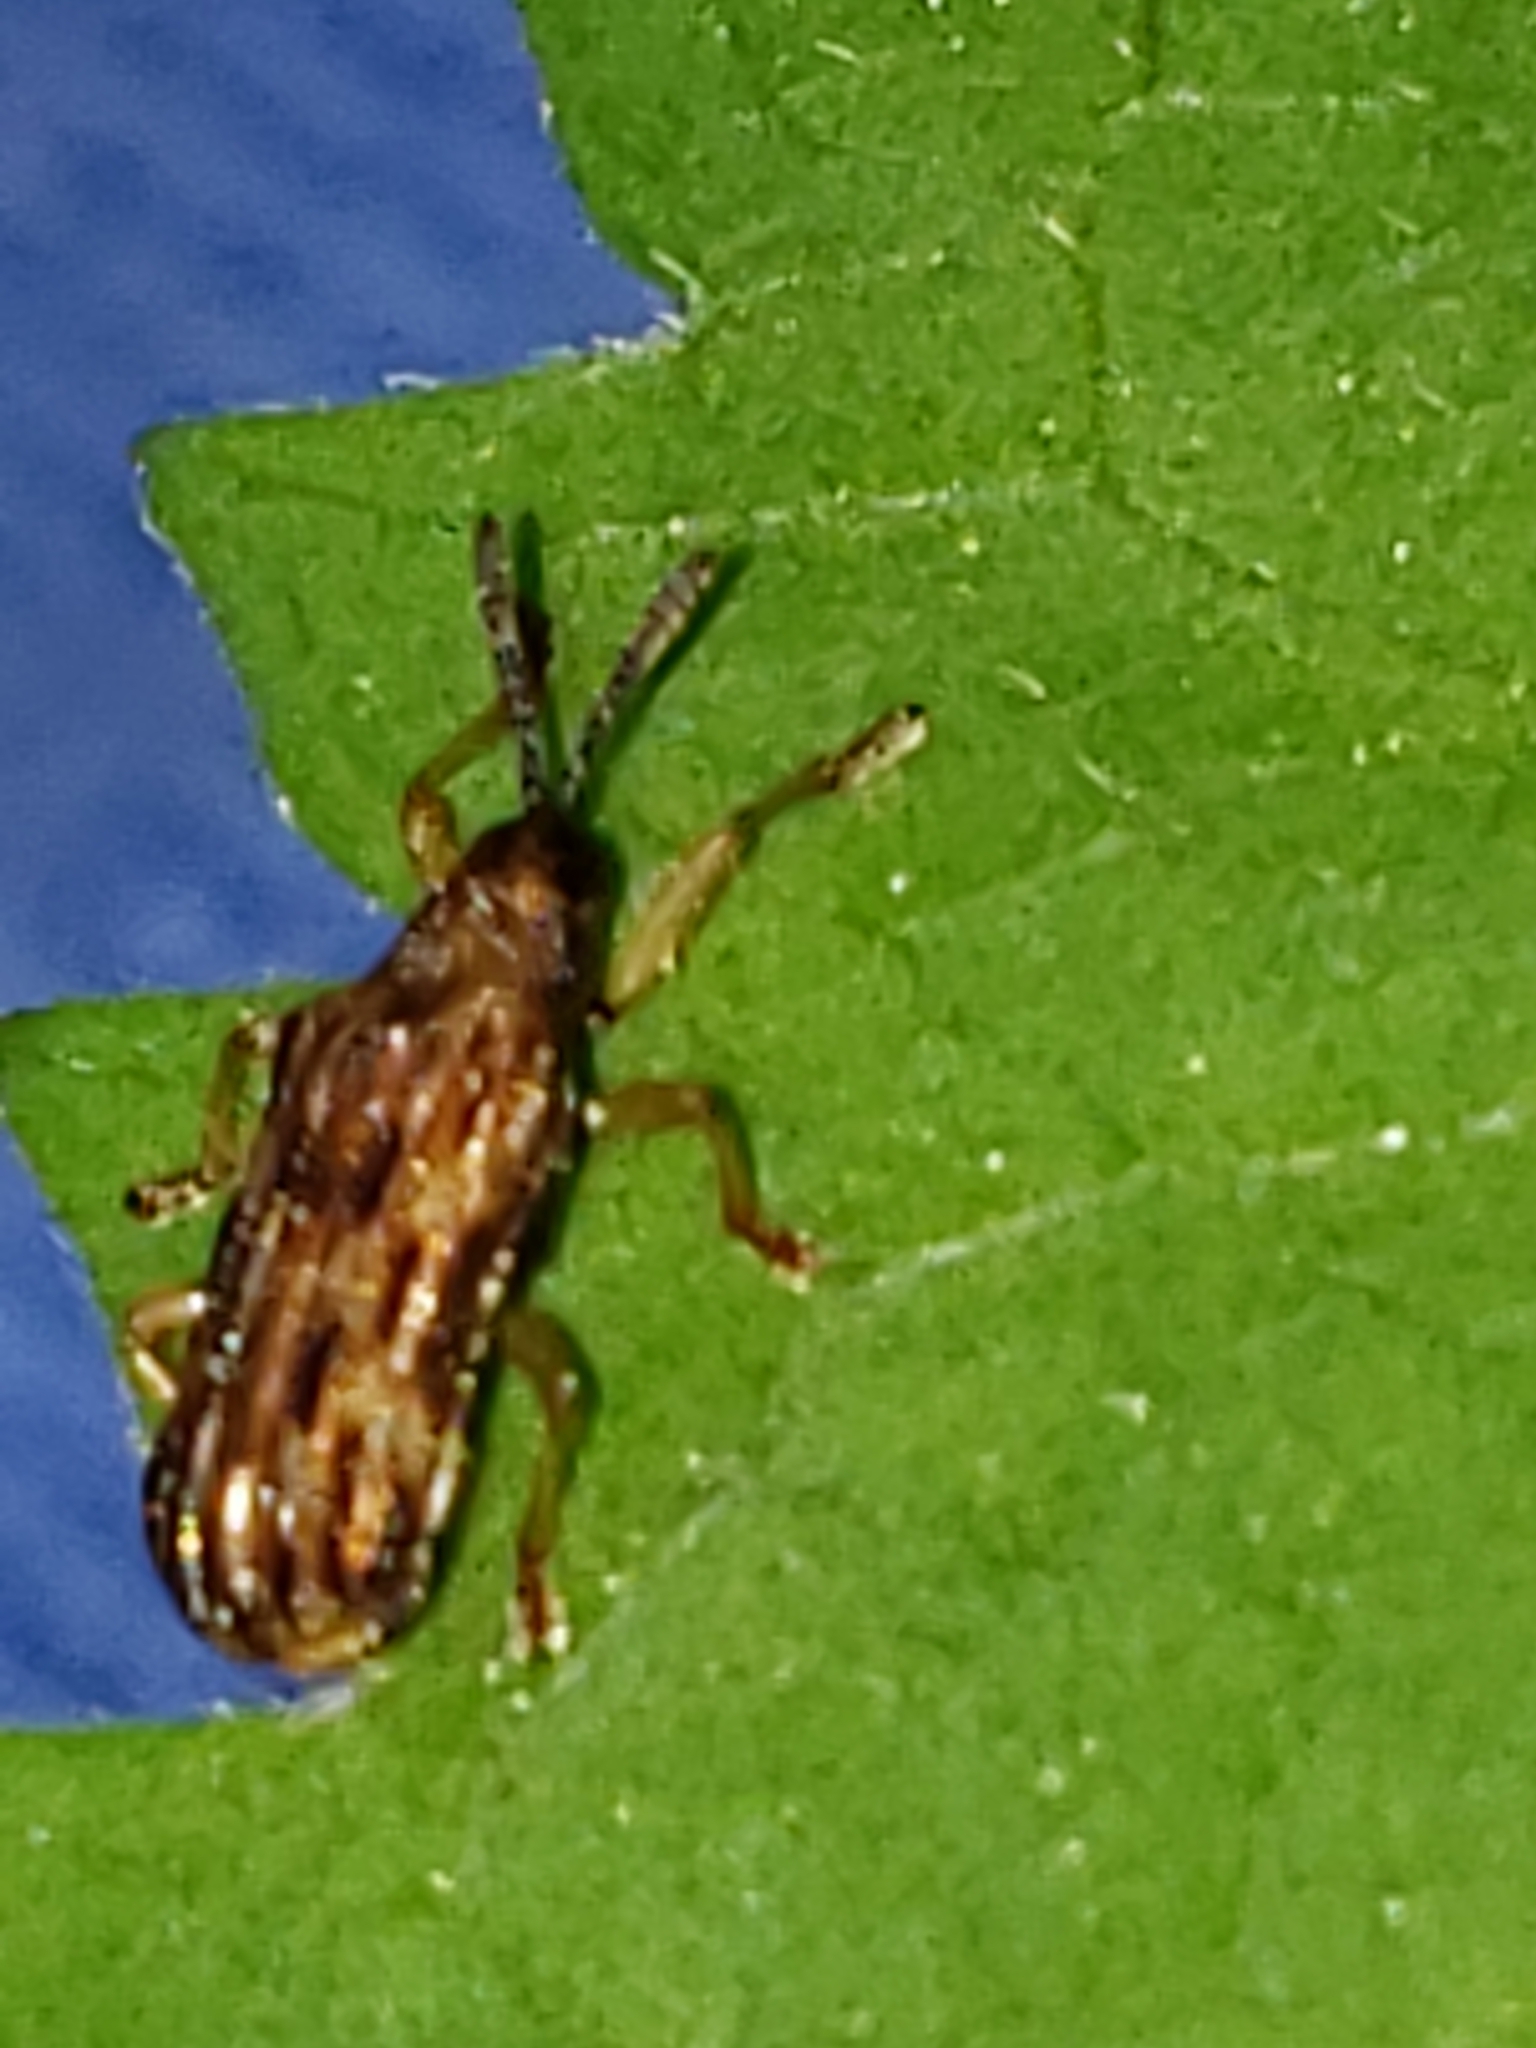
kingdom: Animalia
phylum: Arthropoda
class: Insecta
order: Coleoptera
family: Chrysomelidae
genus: Sumitrosis
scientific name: Sumitrosis inaequalis
